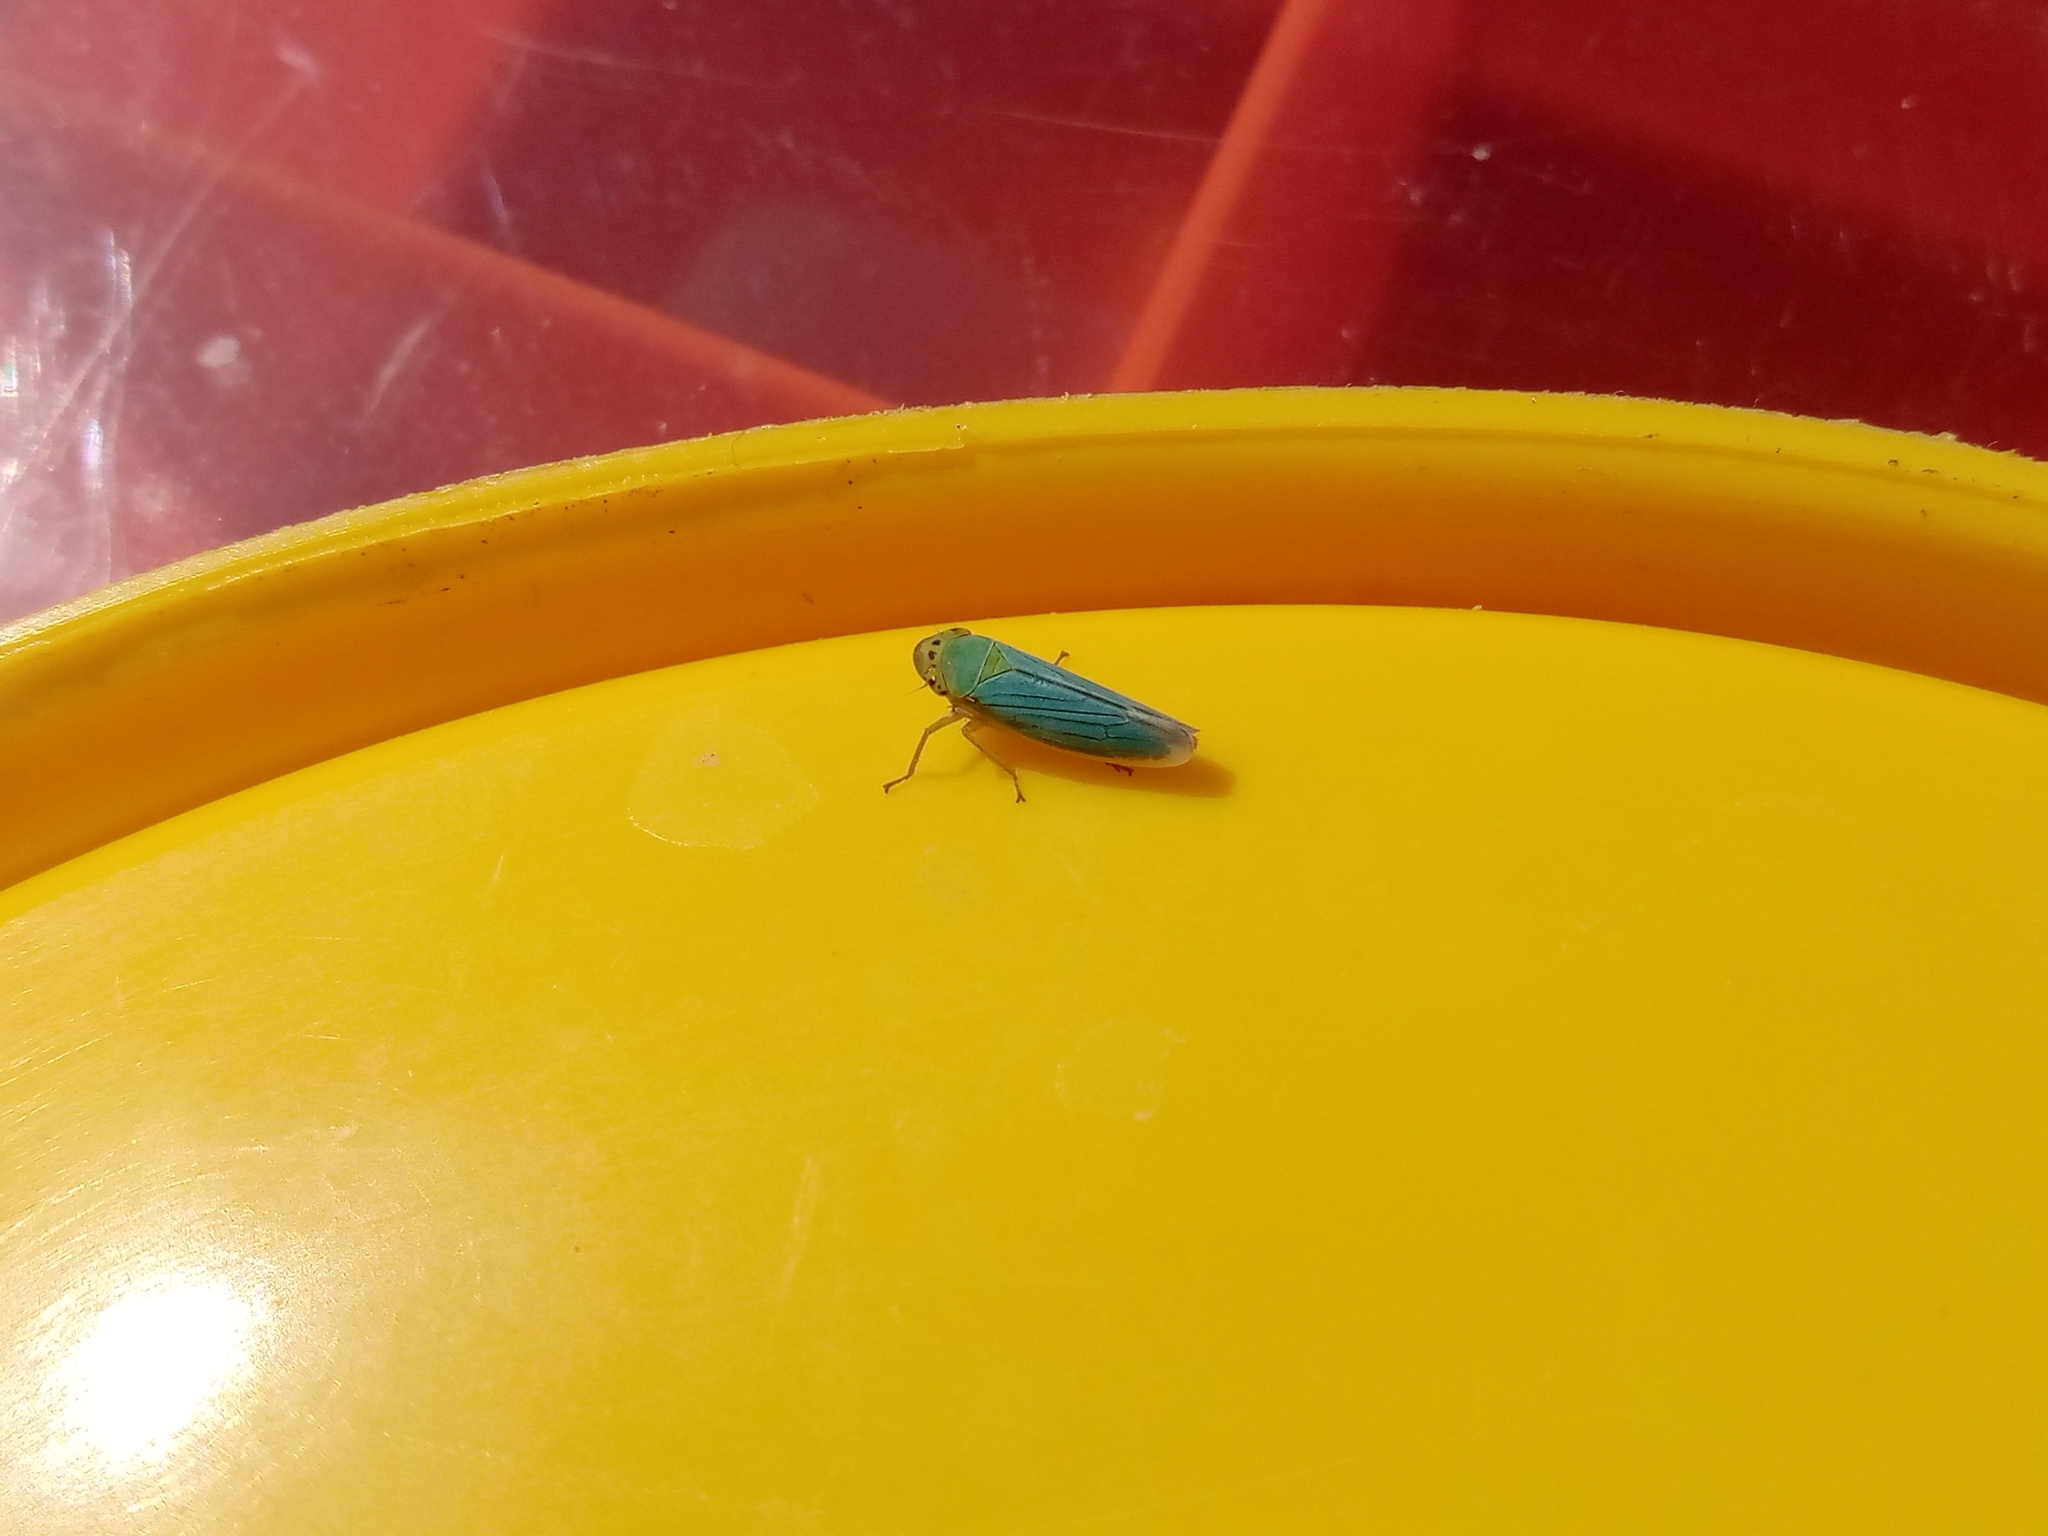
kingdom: Animalia
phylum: Arthropoda
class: Insecta
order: Hemiptera
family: Cicadellidae
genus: Cicadella
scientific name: Cicadella viridis
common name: Leafhopper
